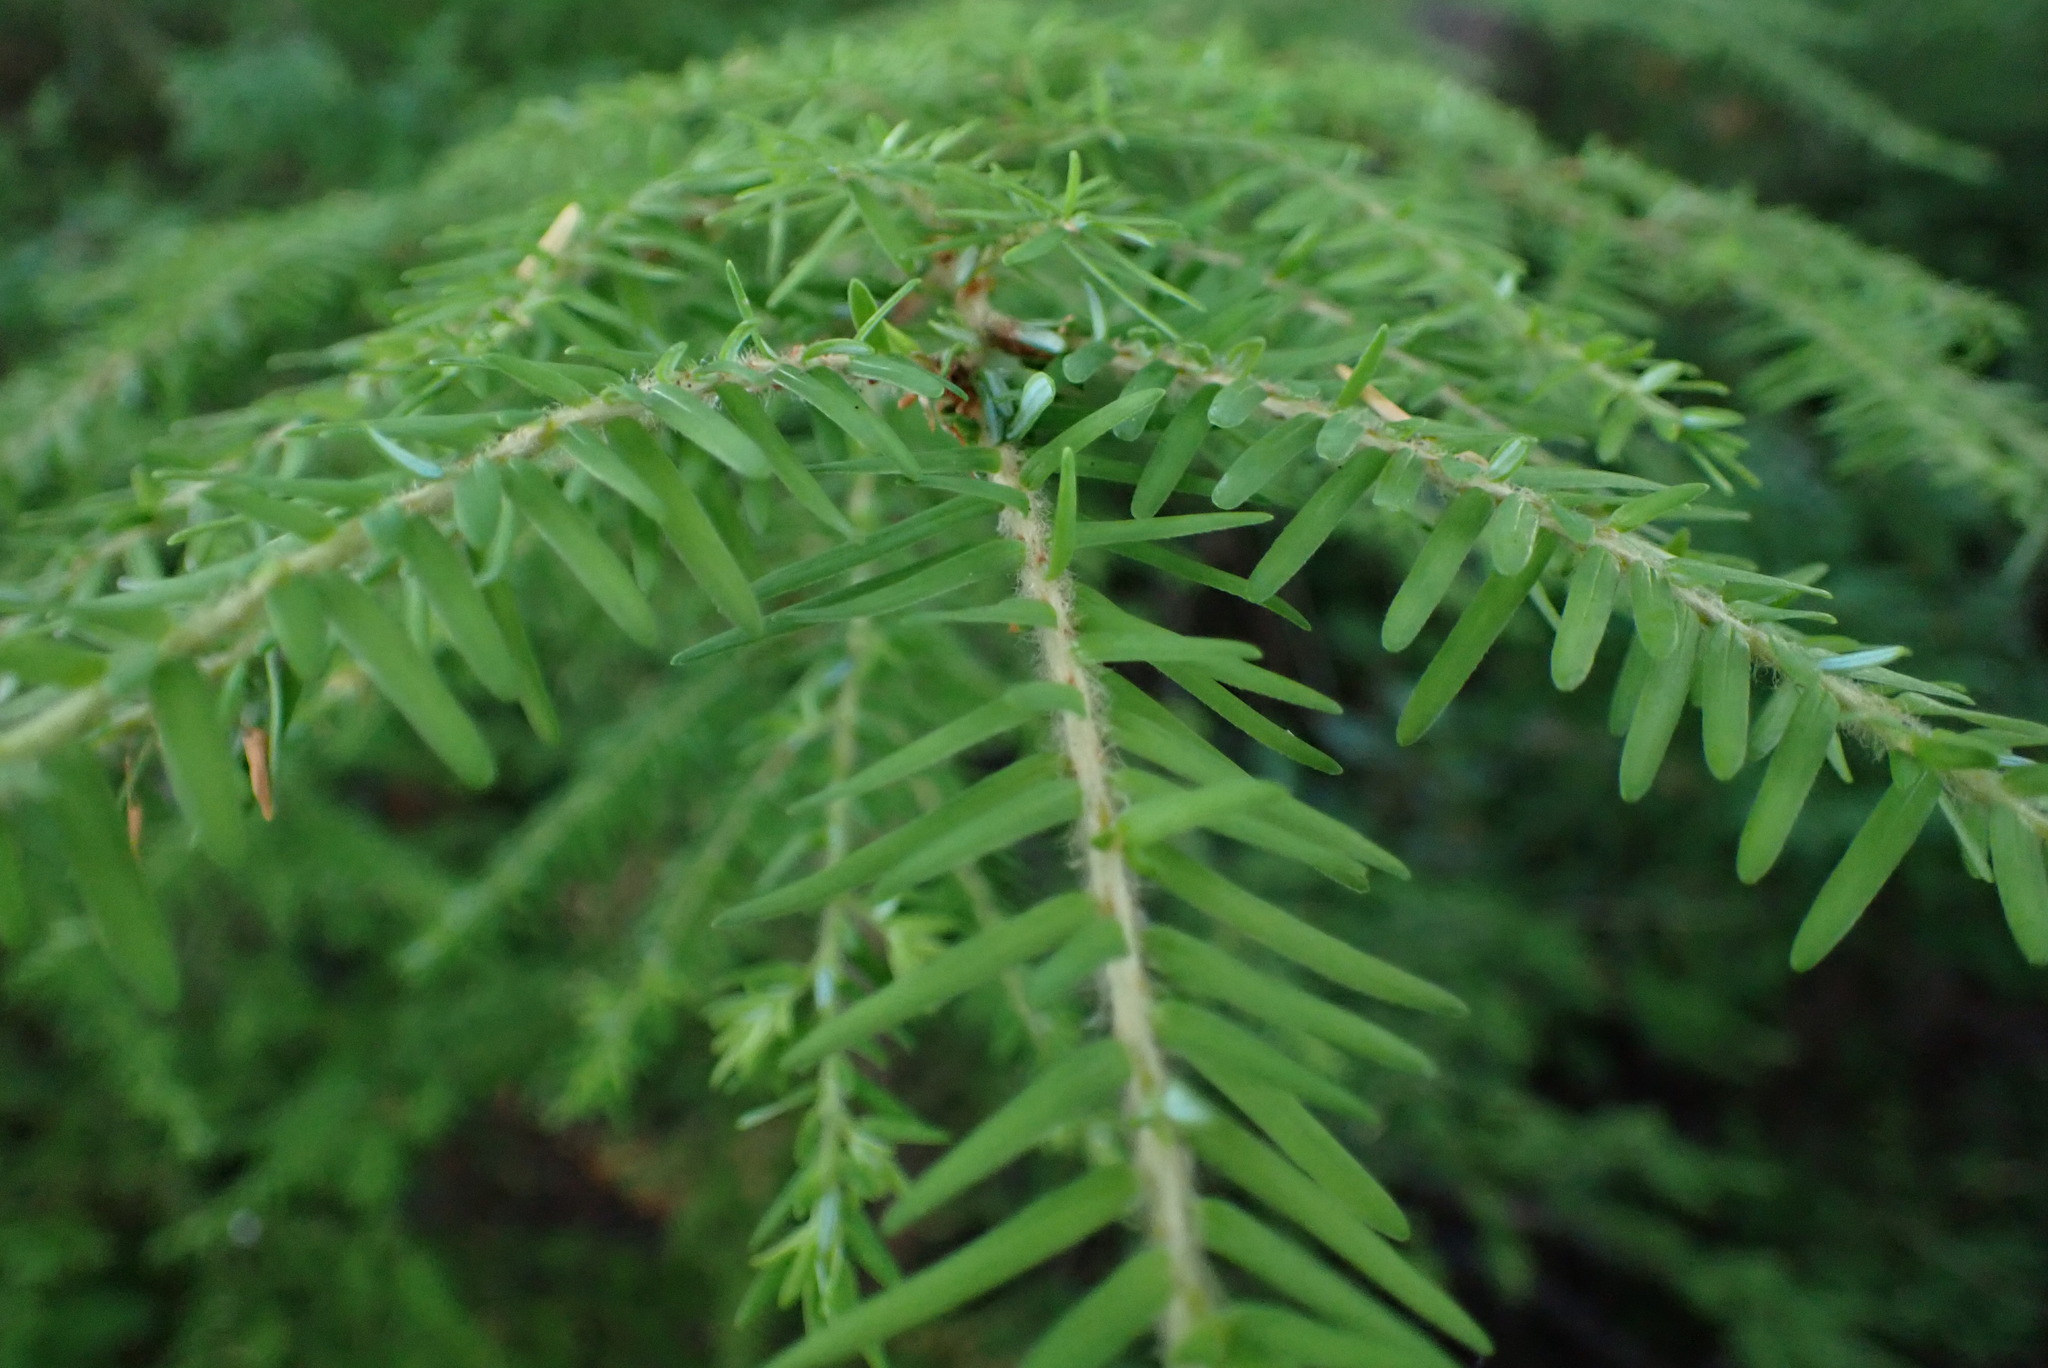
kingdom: Plantae
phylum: Tracheophyta
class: Pinopsida
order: Pinales
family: Pinaceae
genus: Tsuga
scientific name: Tsuga heterophylla
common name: Western hemlock
